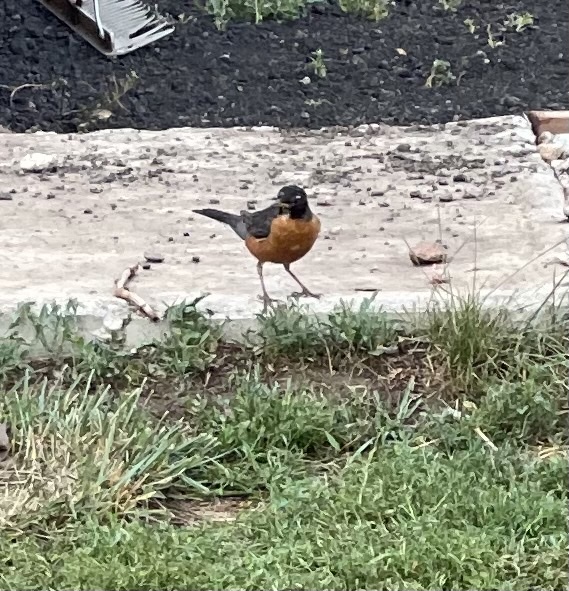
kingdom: Animalia
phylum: Chordata
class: Aves
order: Passeriformes
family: Turdidae
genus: Turdus
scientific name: Turdus migratorius
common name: American robin
